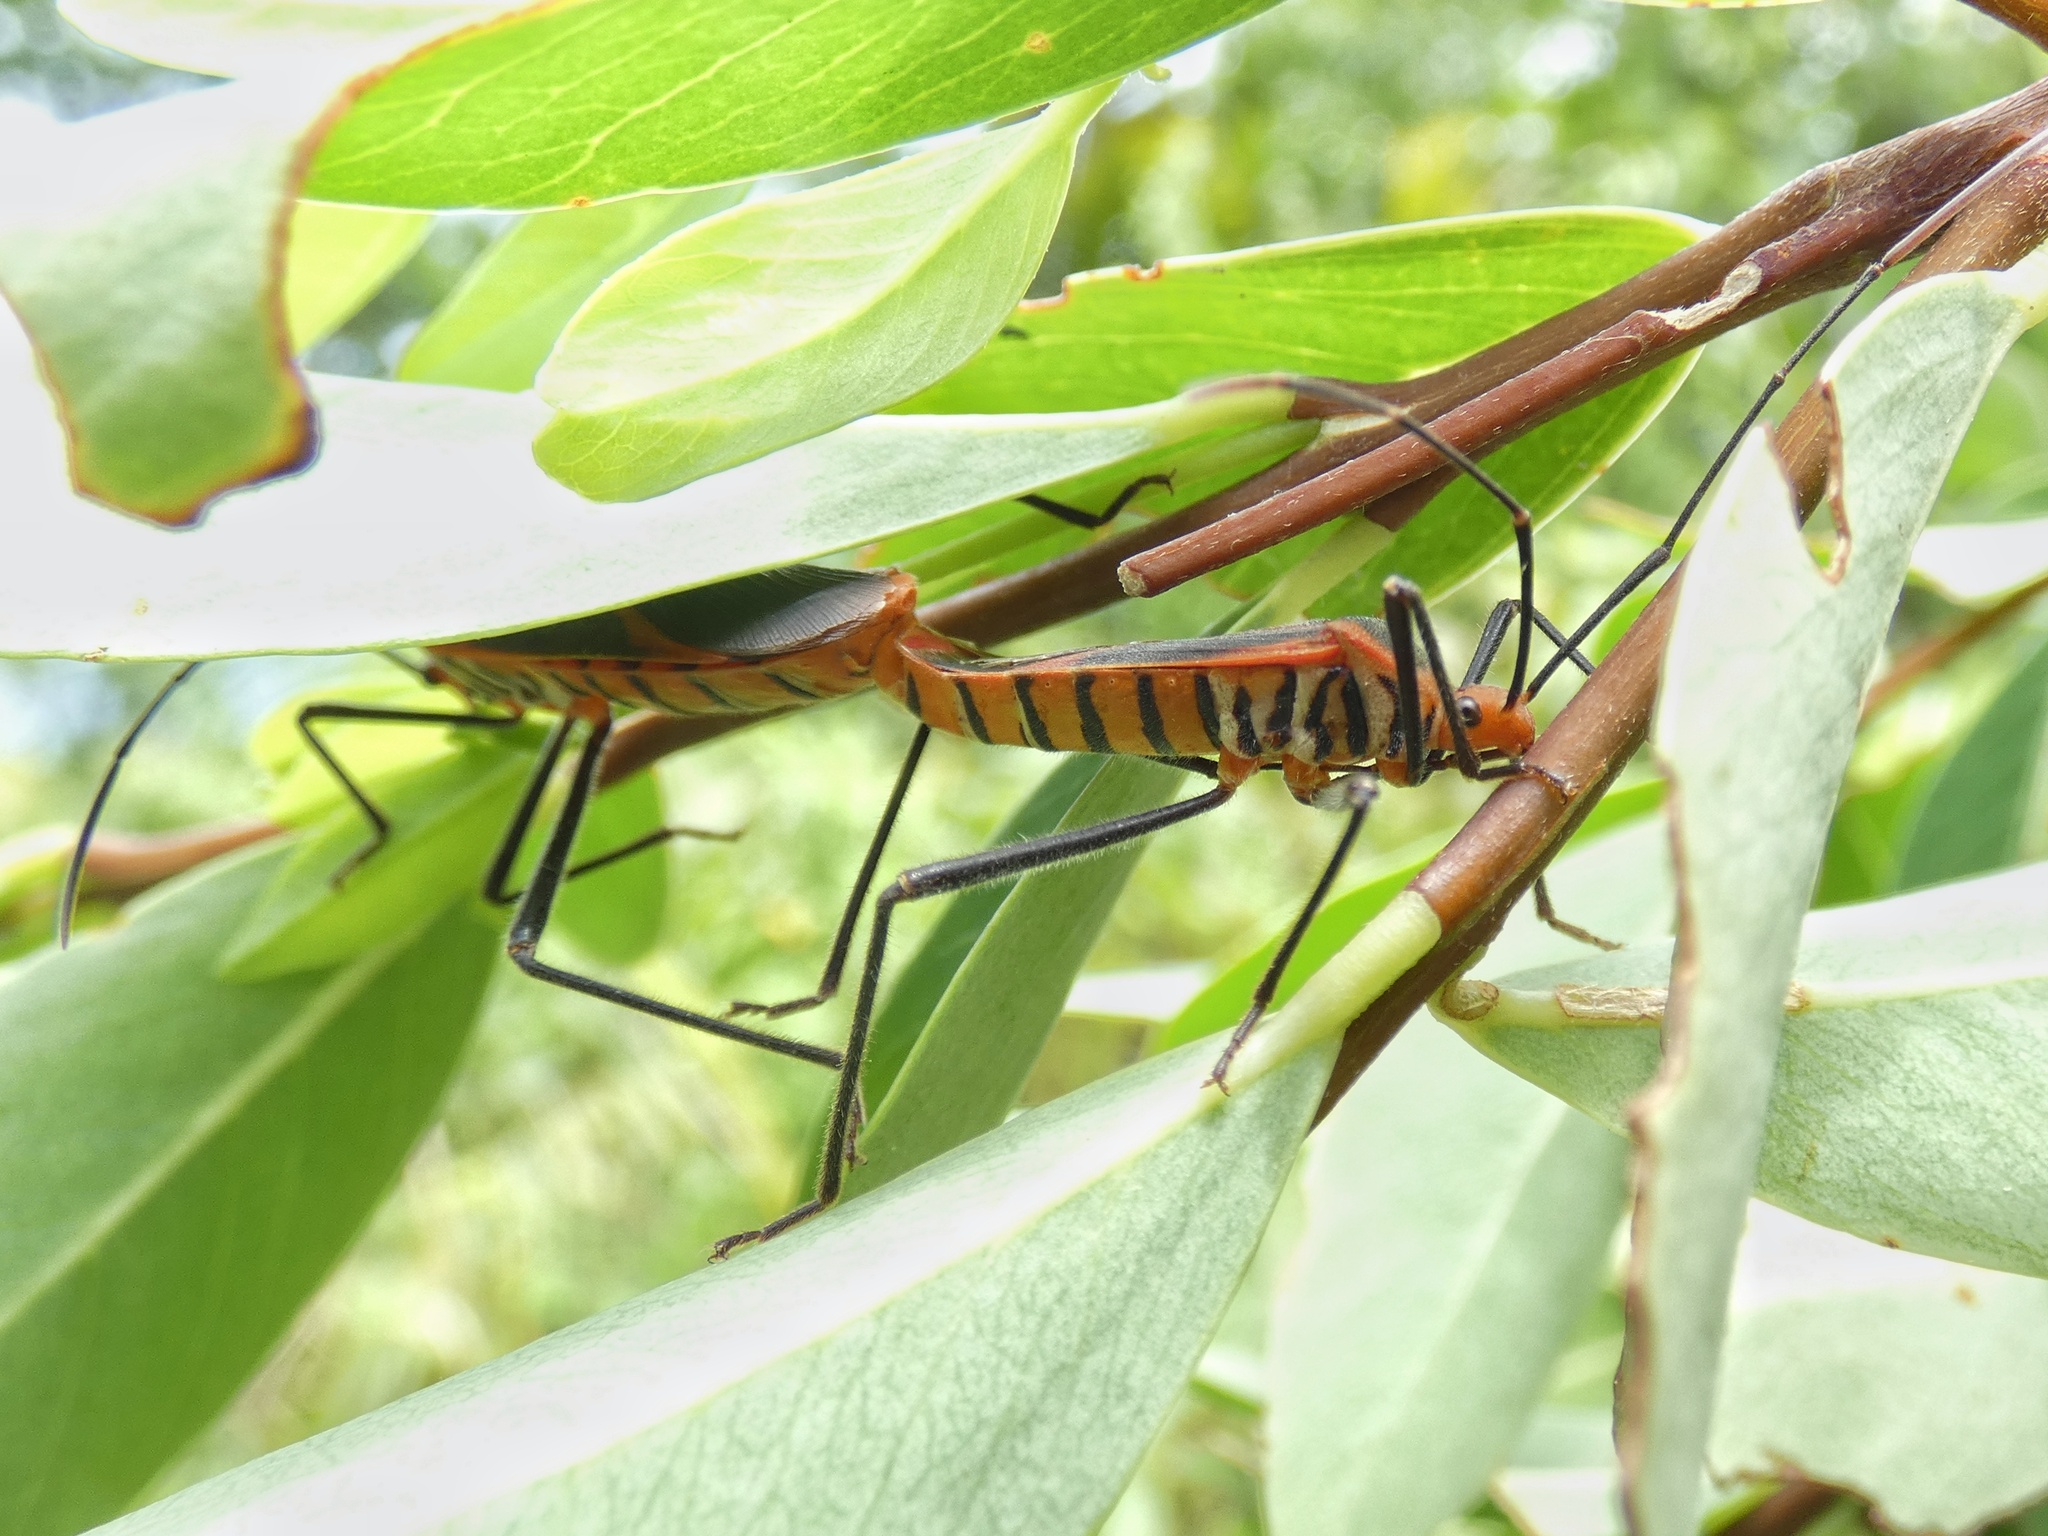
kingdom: Animalia
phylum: Arthropoda
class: Insecta
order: Hemiptera
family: Coreidae
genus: Dasynus
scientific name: Dasynus coccocinctus
